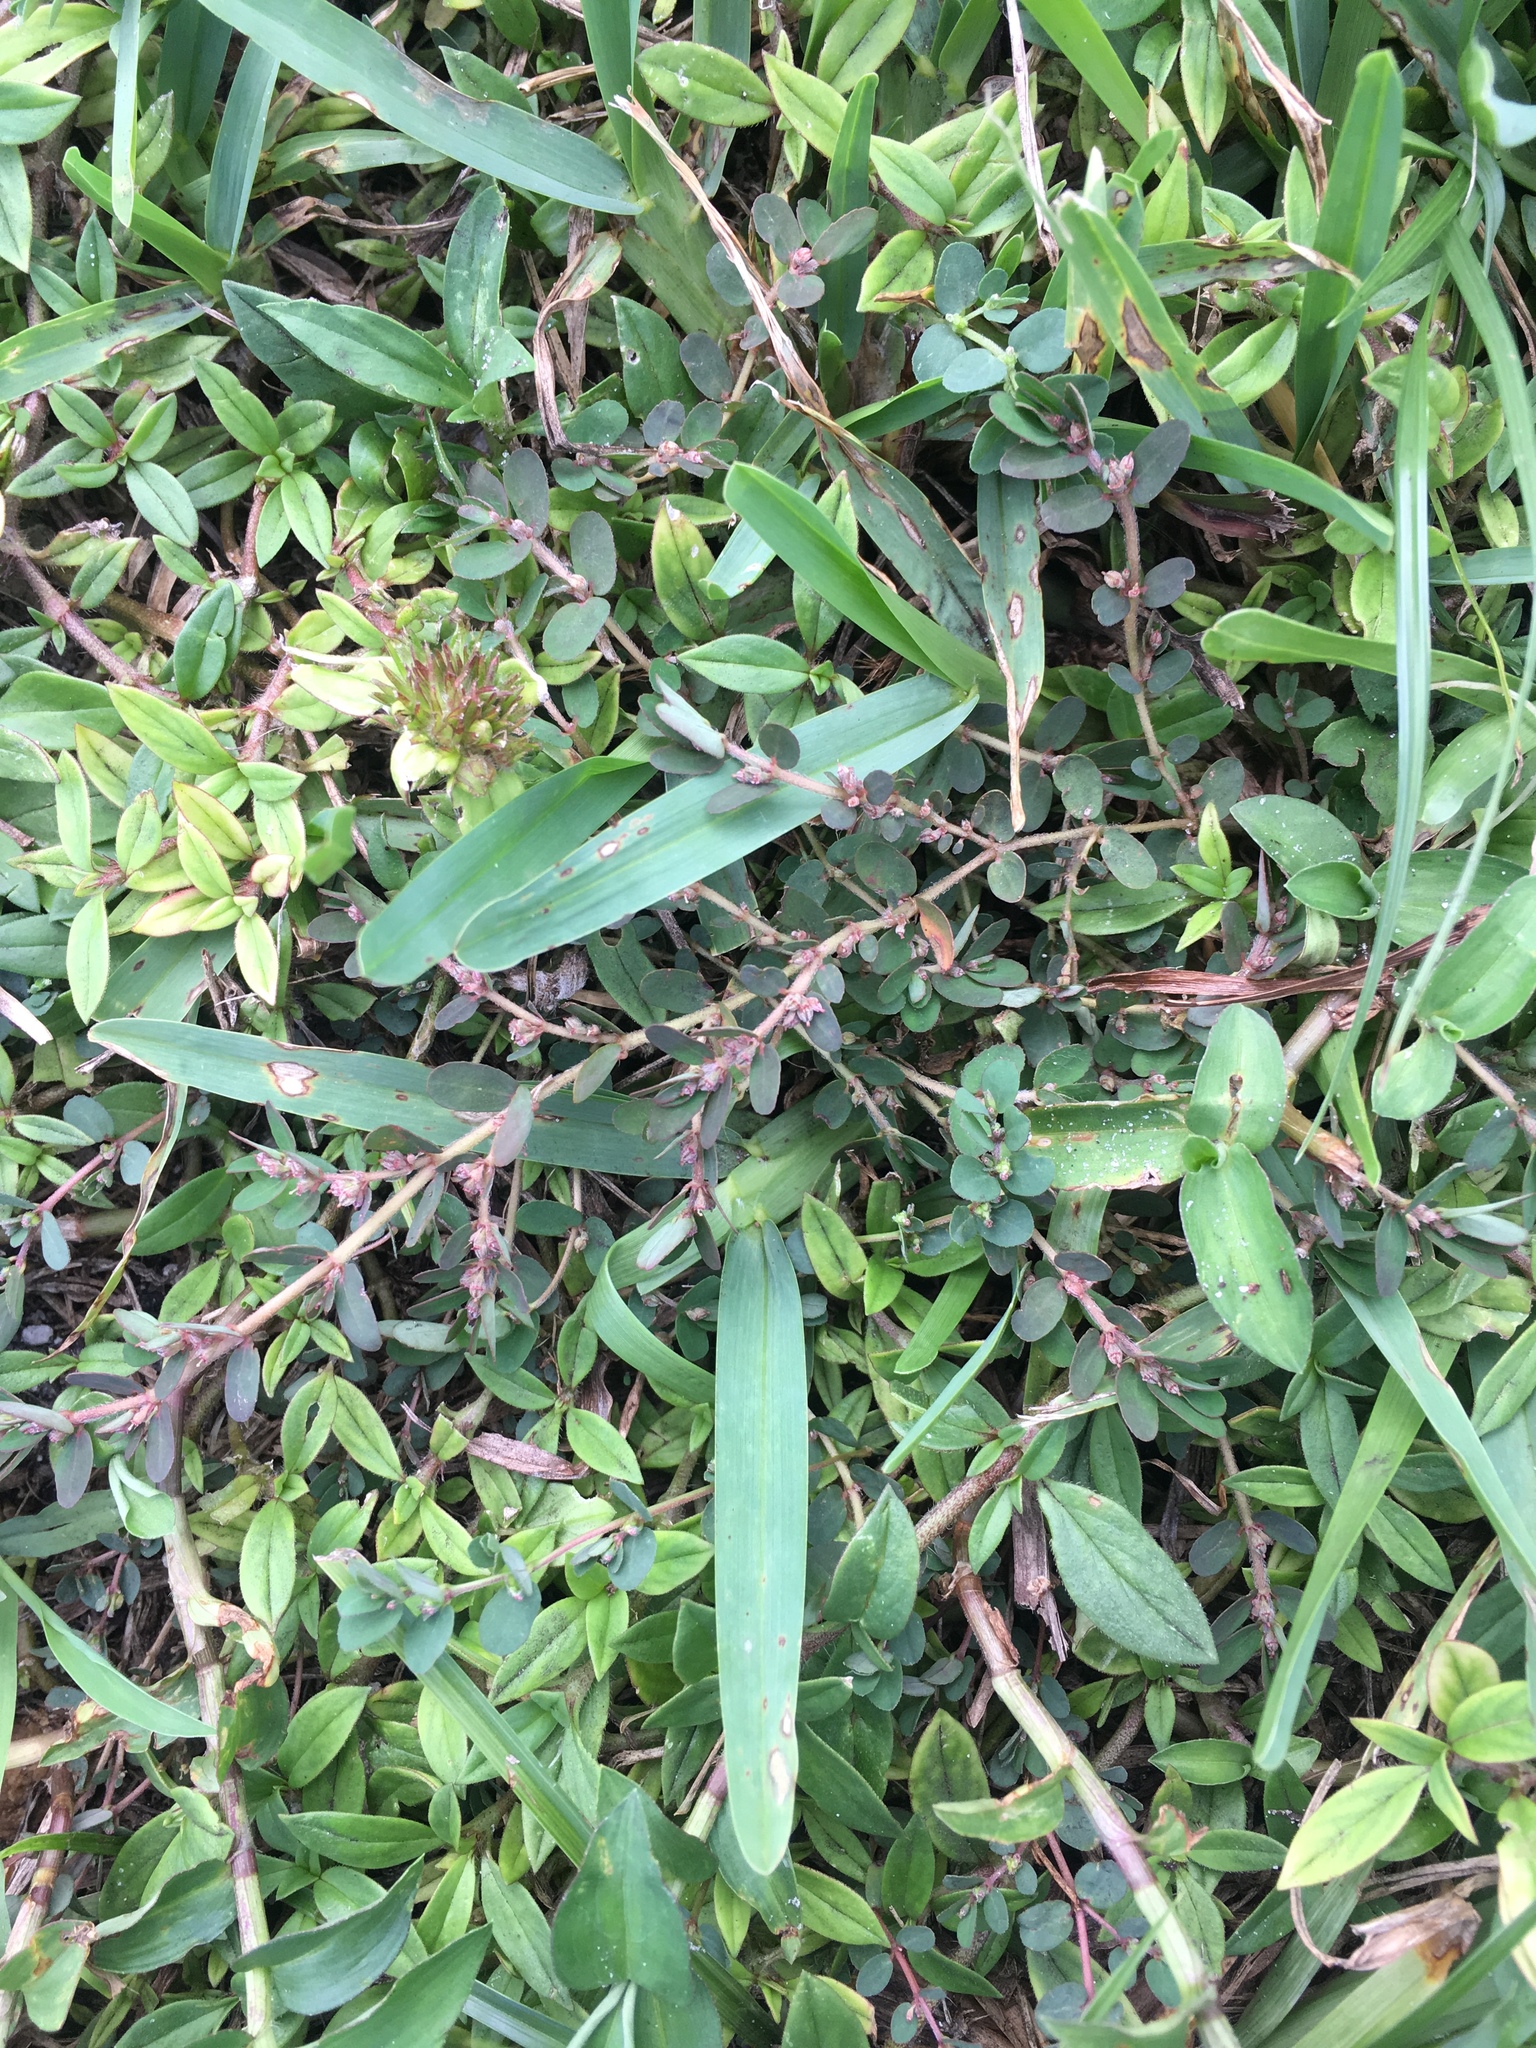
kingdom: Plantae
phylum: Tracheophyta
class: Magnoliopsida
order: Malpighiales
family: Euphorbiaceae
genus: Euphorbia
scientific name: Euphorbia thymifolia
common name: Gulf sandmat
